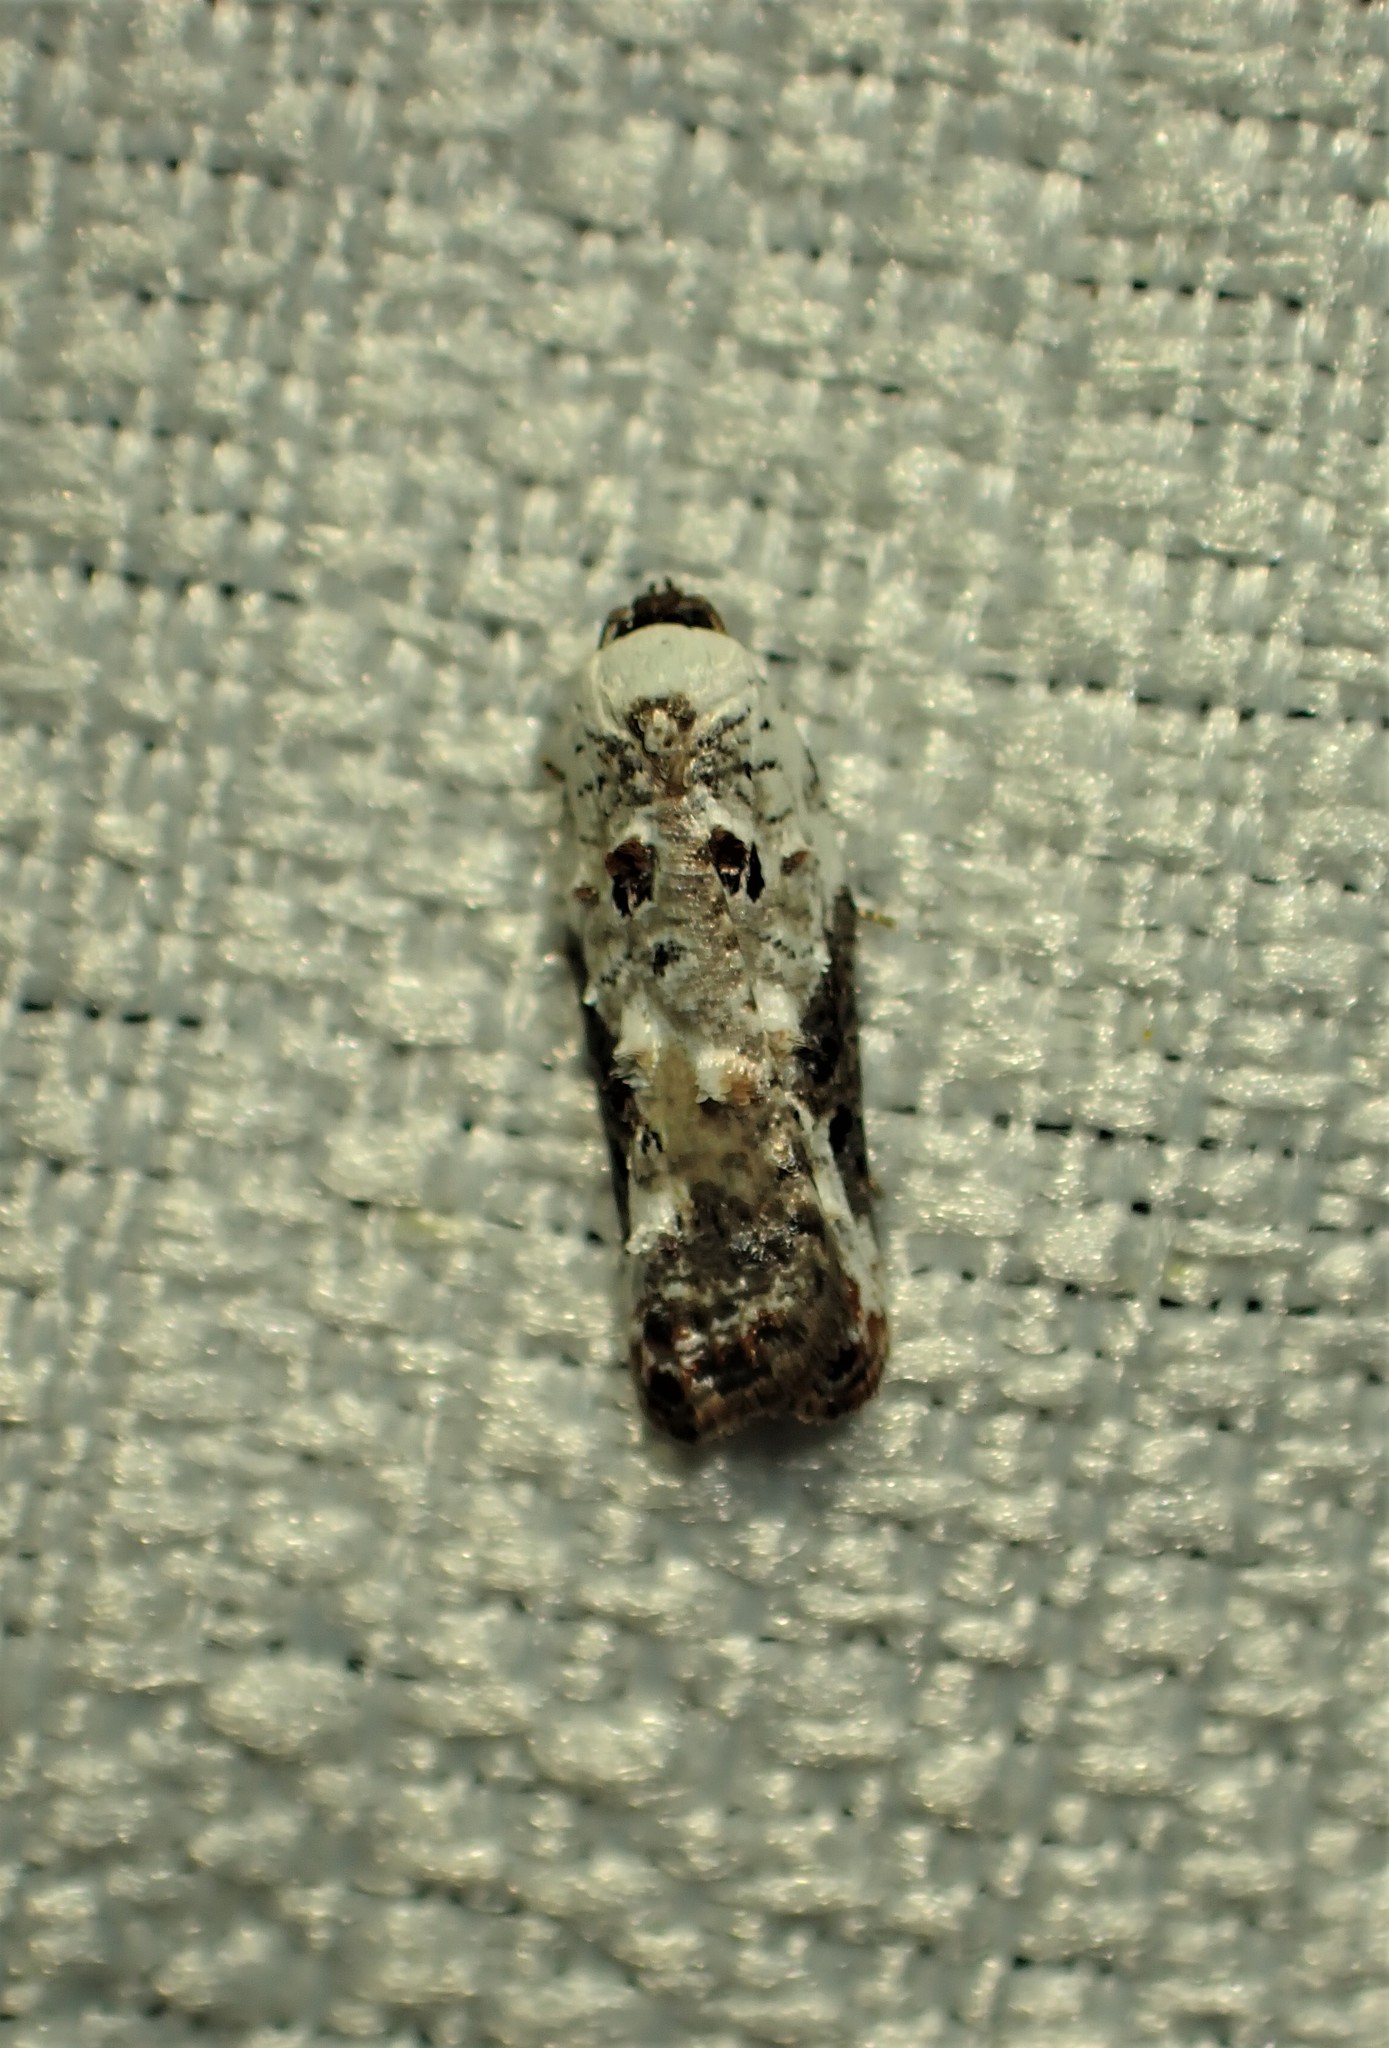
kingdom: Animalia
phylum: Arthropoda
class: Insecta
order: Lepidoptera
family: Tortricidae
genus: Acleris
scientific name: Acleris nivisellana
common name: Snowy-shouldered acleris moth
